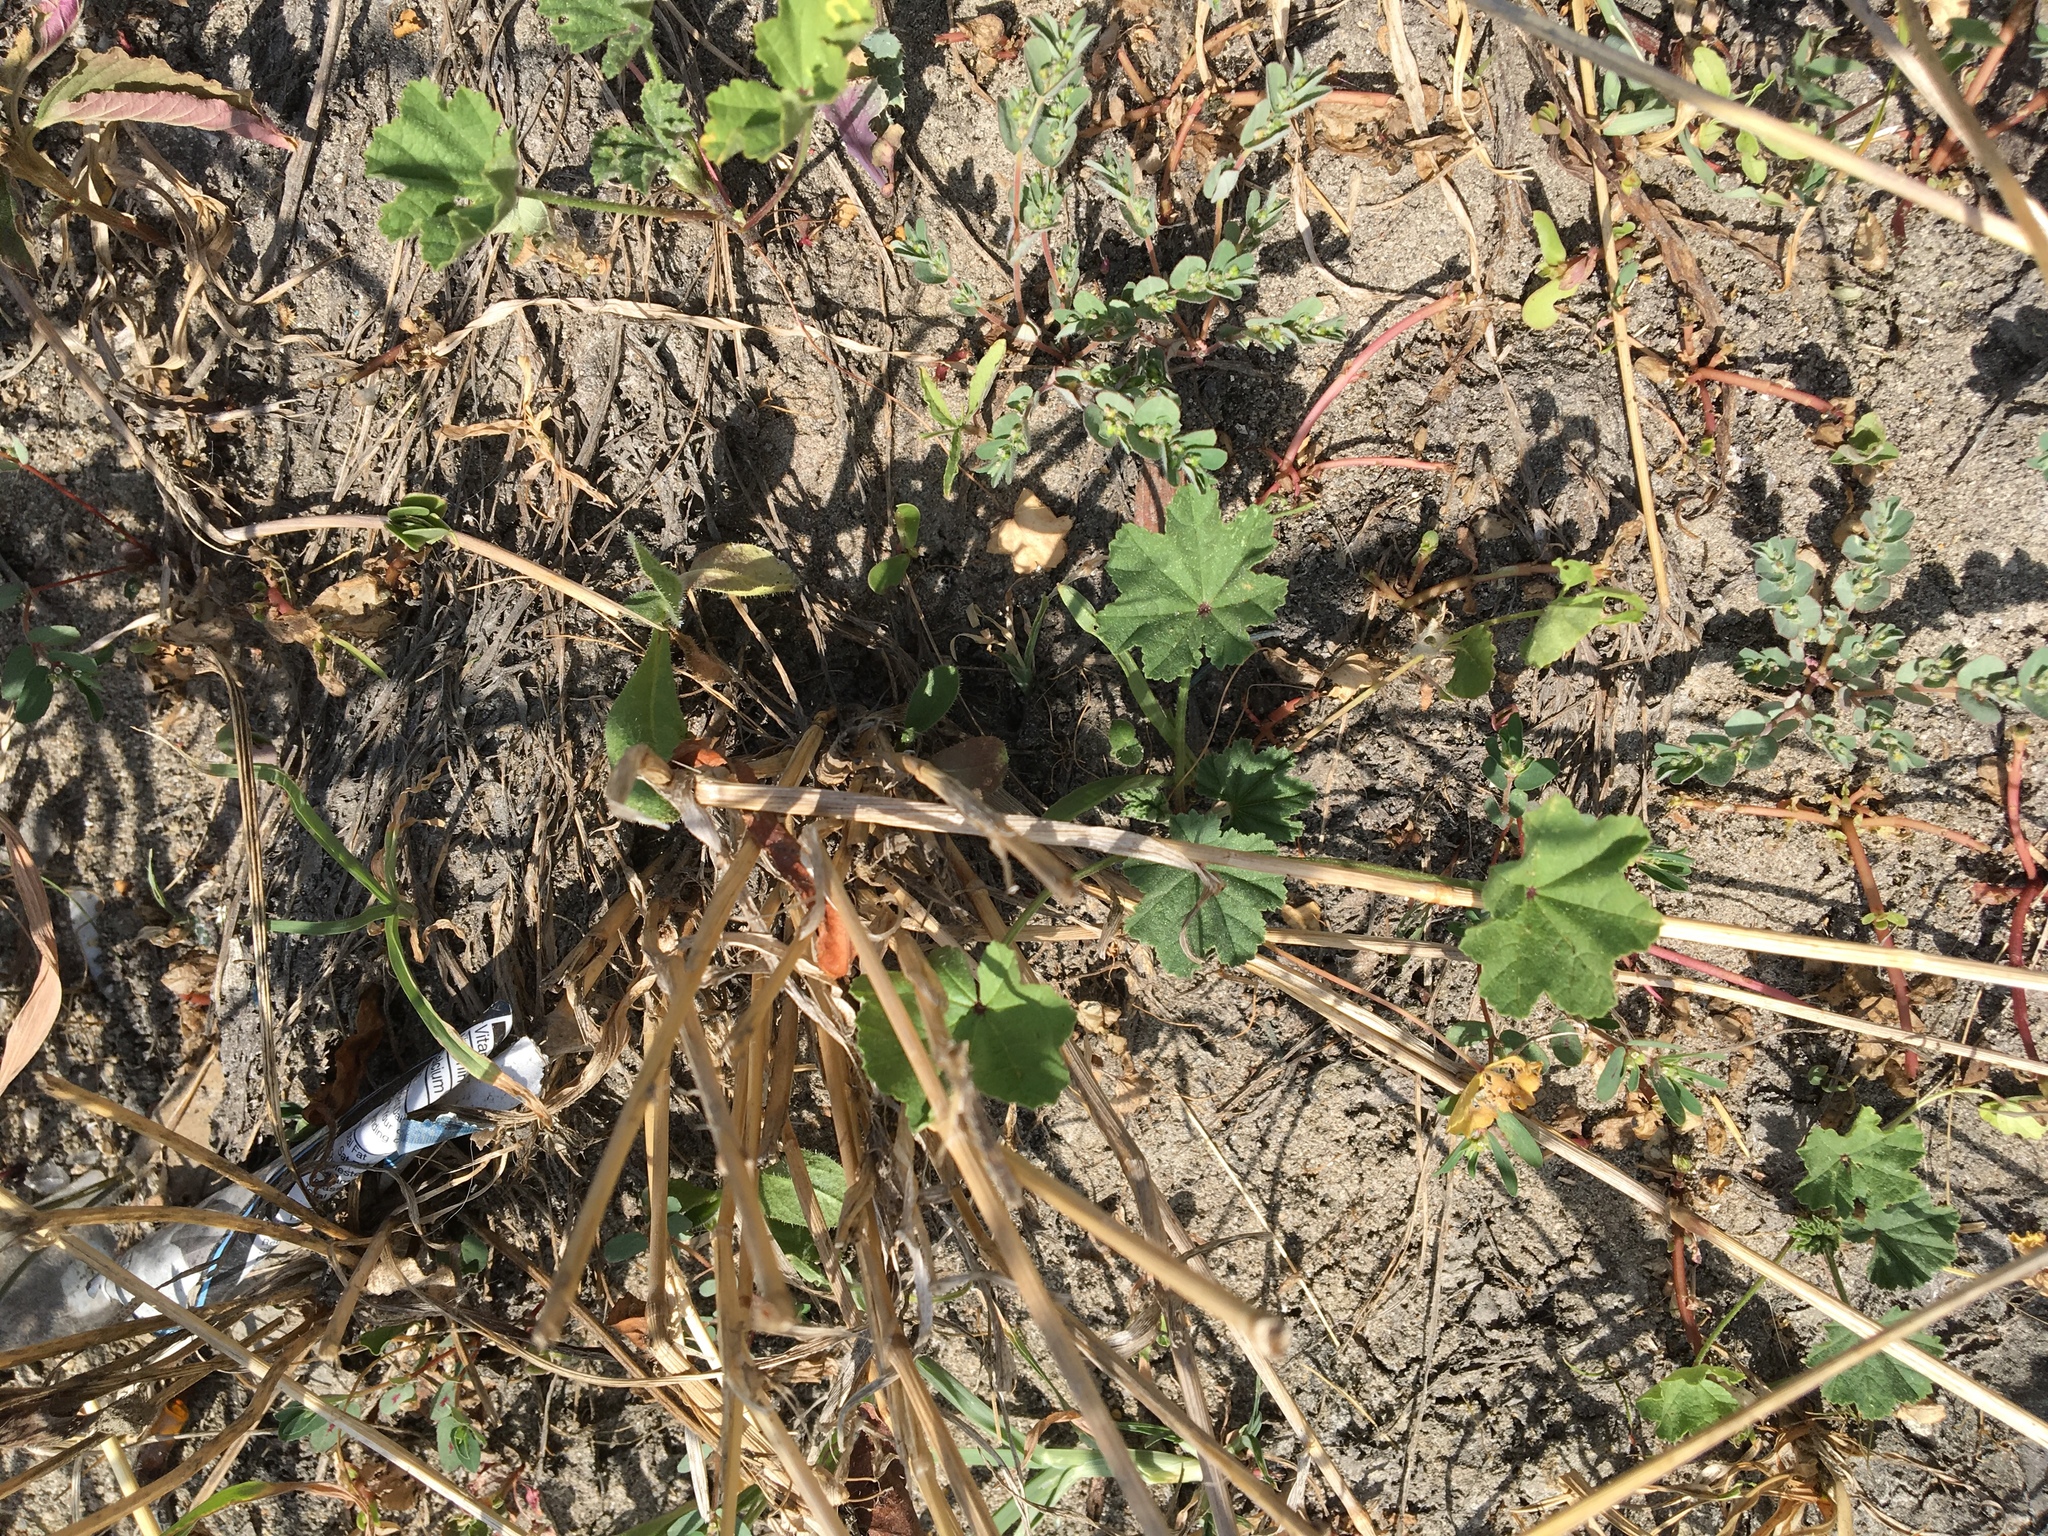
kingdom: Plantae
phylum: Tracheophyta
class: Magnoliopsida
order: Malvales
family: Malvaceae
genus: Malva
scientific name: Malva
